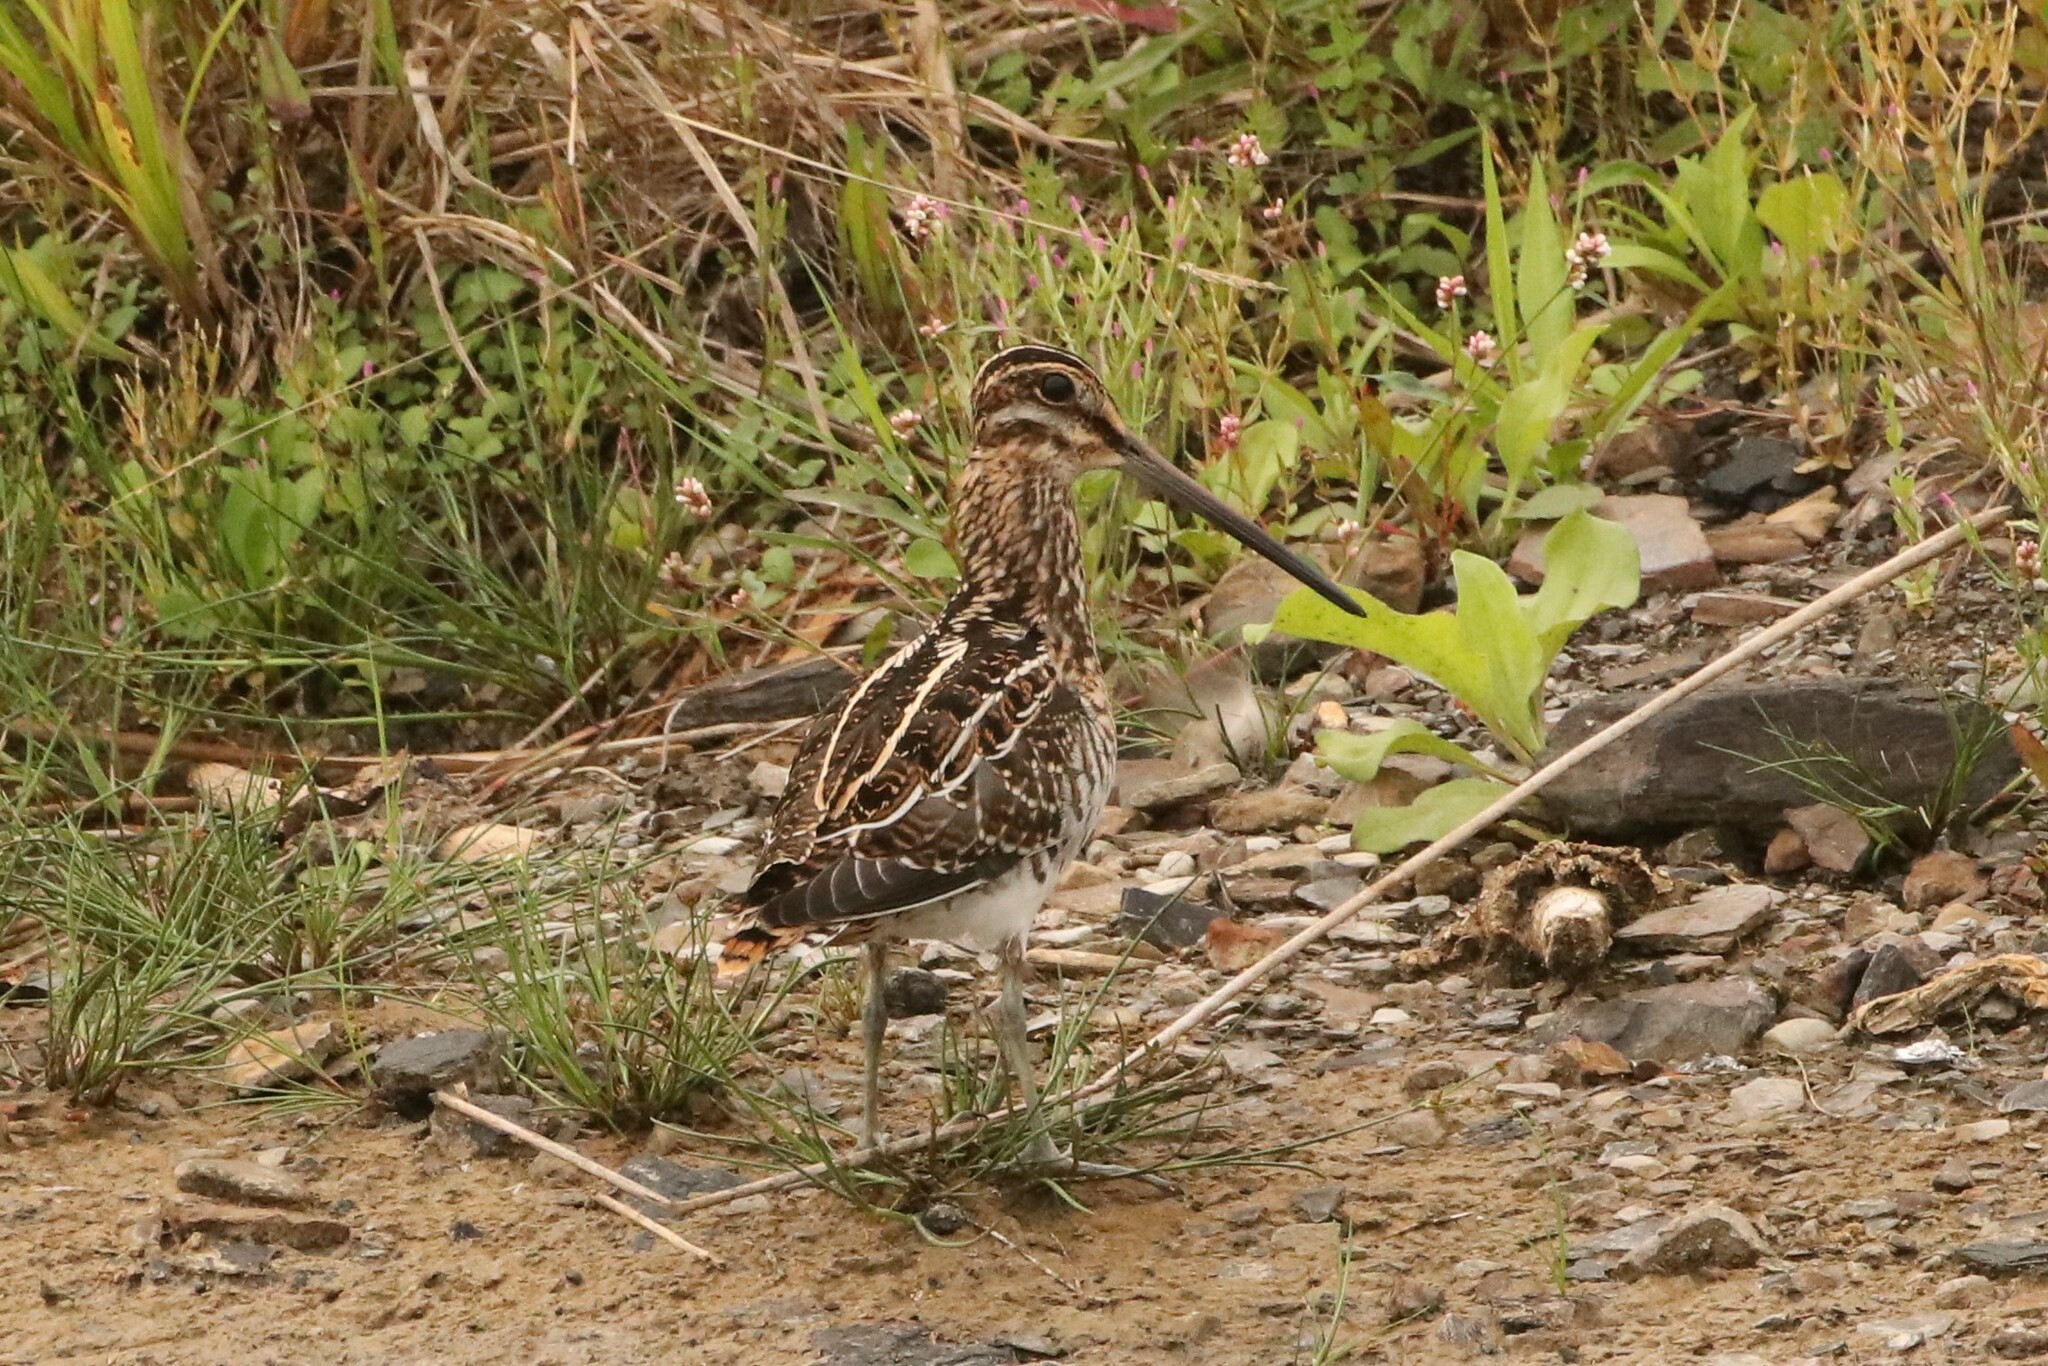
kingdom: Animalia
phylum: Chordata
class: Aves
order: Charadriiformes
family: Scolopacidae
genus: Gallinago
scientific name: Gallinago delicata
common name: Wilson's snipe
